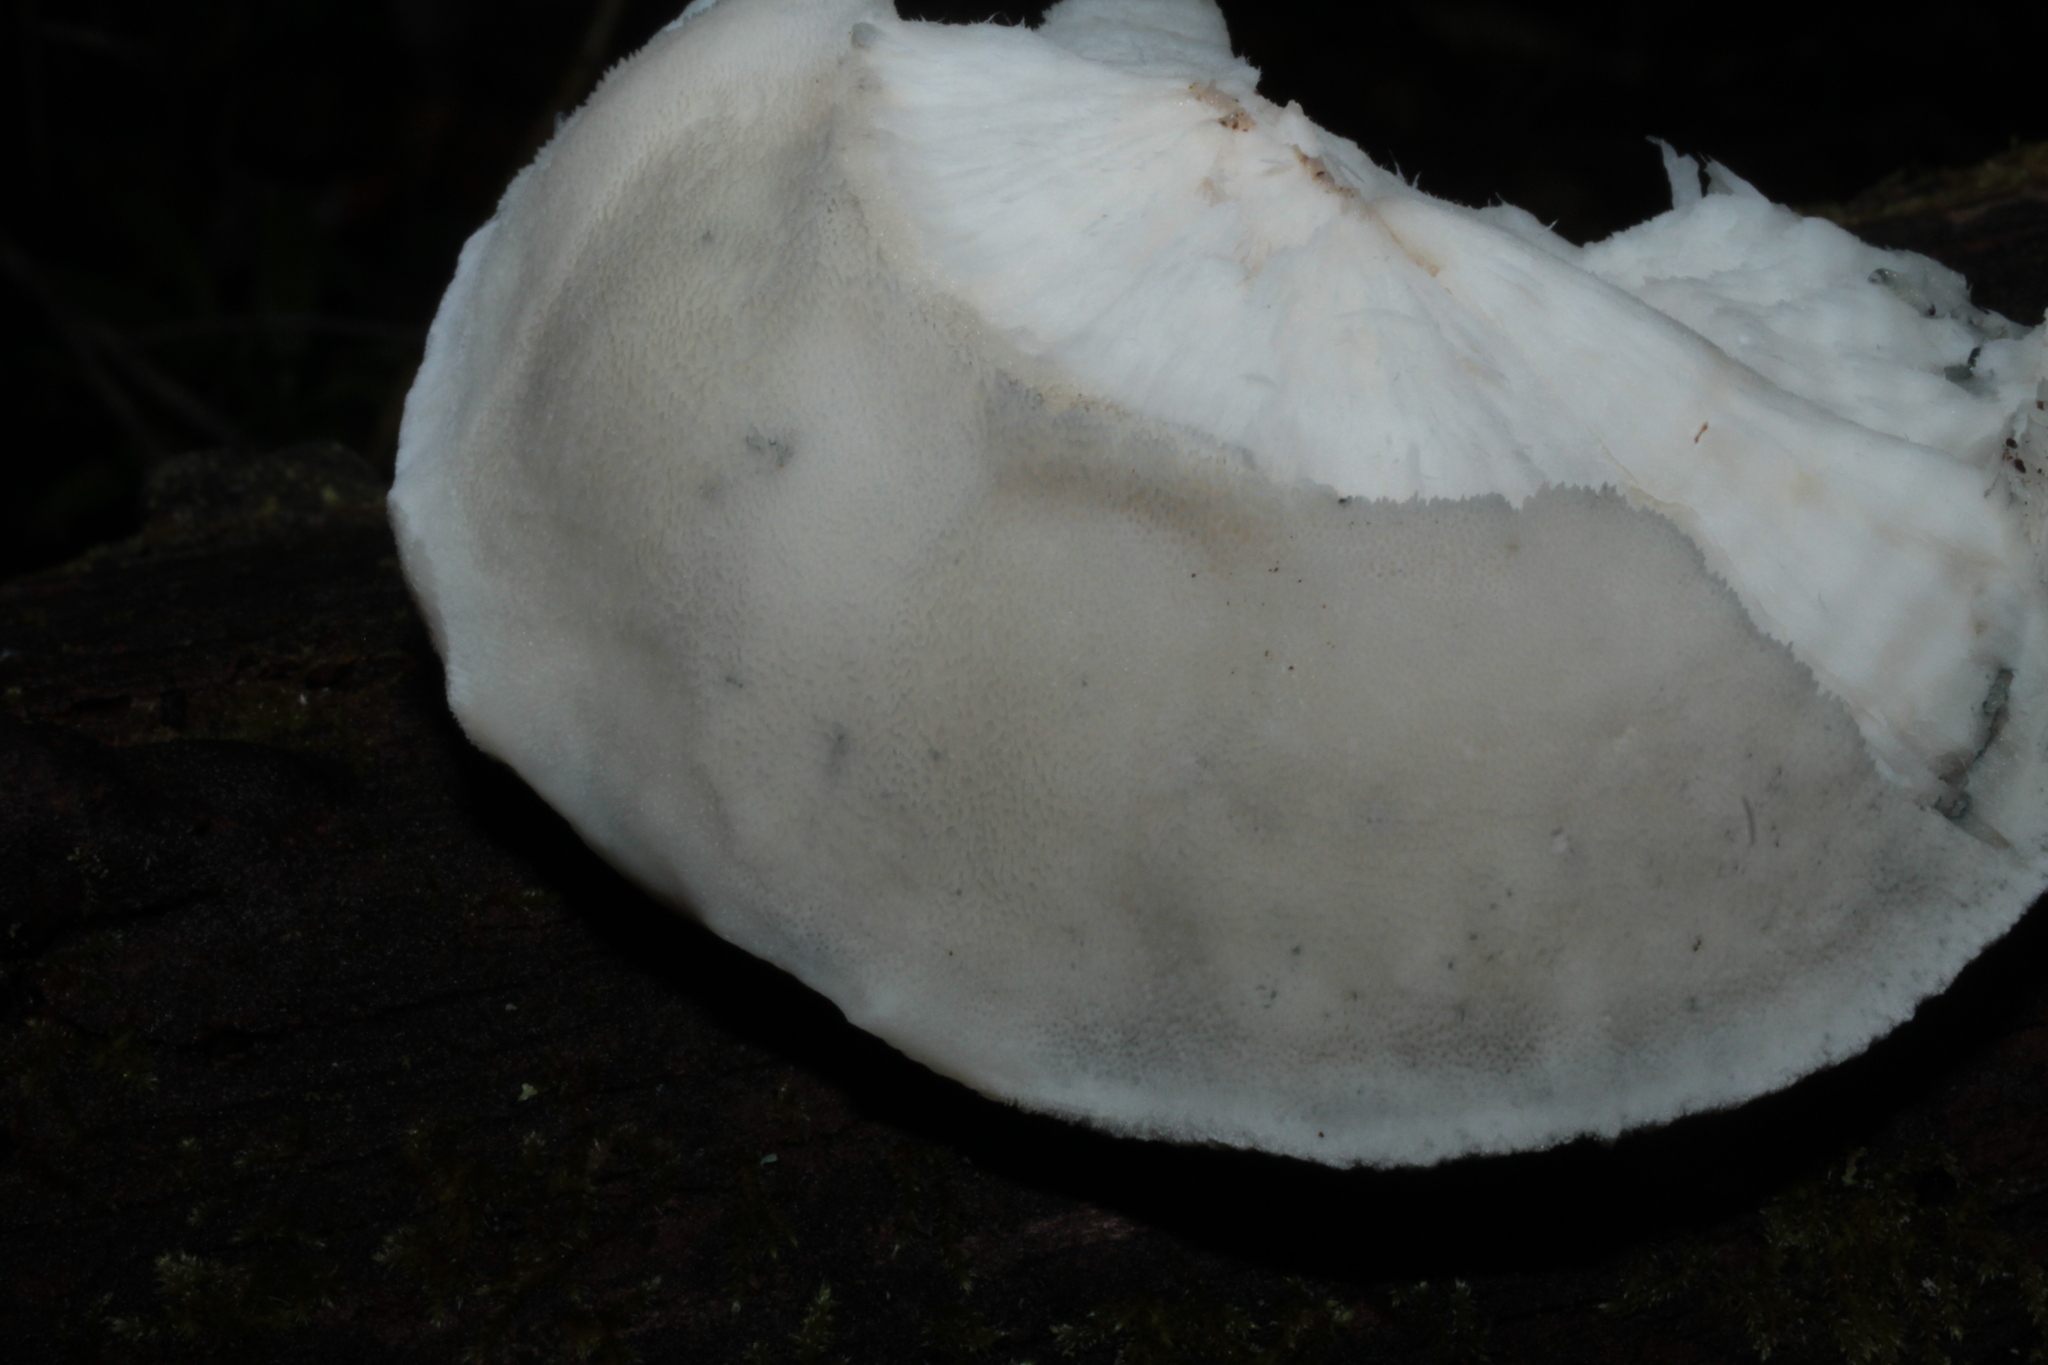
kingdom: Fungi
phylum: Basidiomycota
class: Agaricomycetes
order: Polyporales
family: Polyporaceae
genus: Cyanosporus
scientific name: Cyanosporus caesius
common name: Blue cheese polypore
